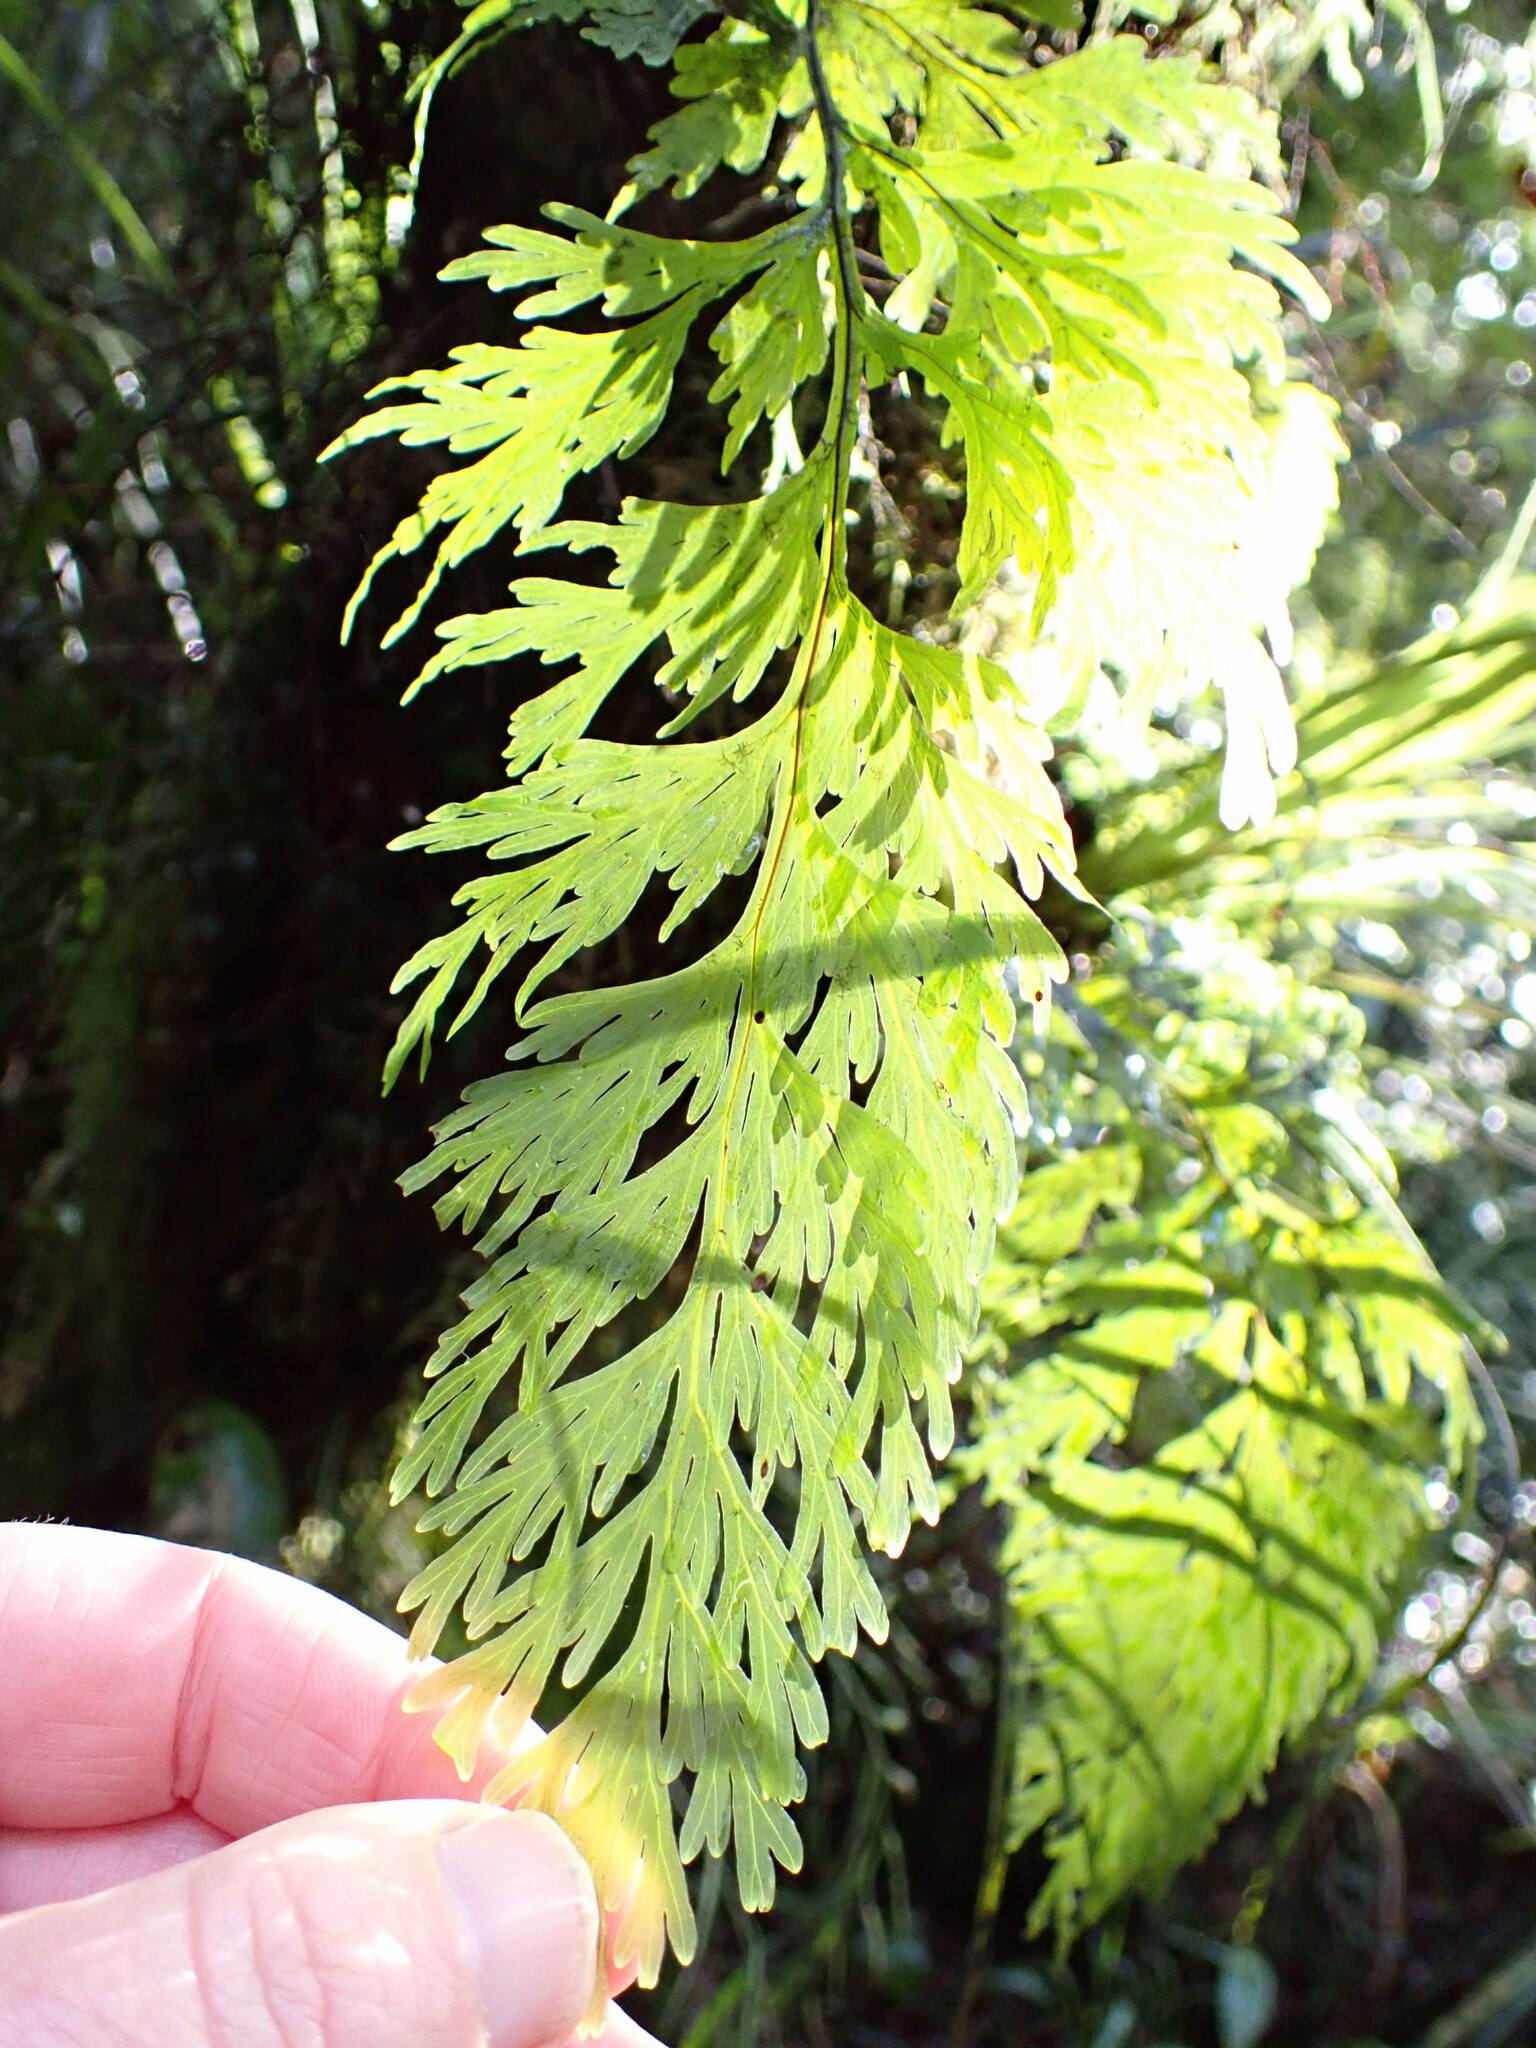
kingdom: Plantae
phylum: Tracheophyta
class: Polypodiopsida
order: Hymenophyllales
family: Hymenophyllaceae
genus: Hymenophyllum
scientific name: Hymenophyllum dilatatum
